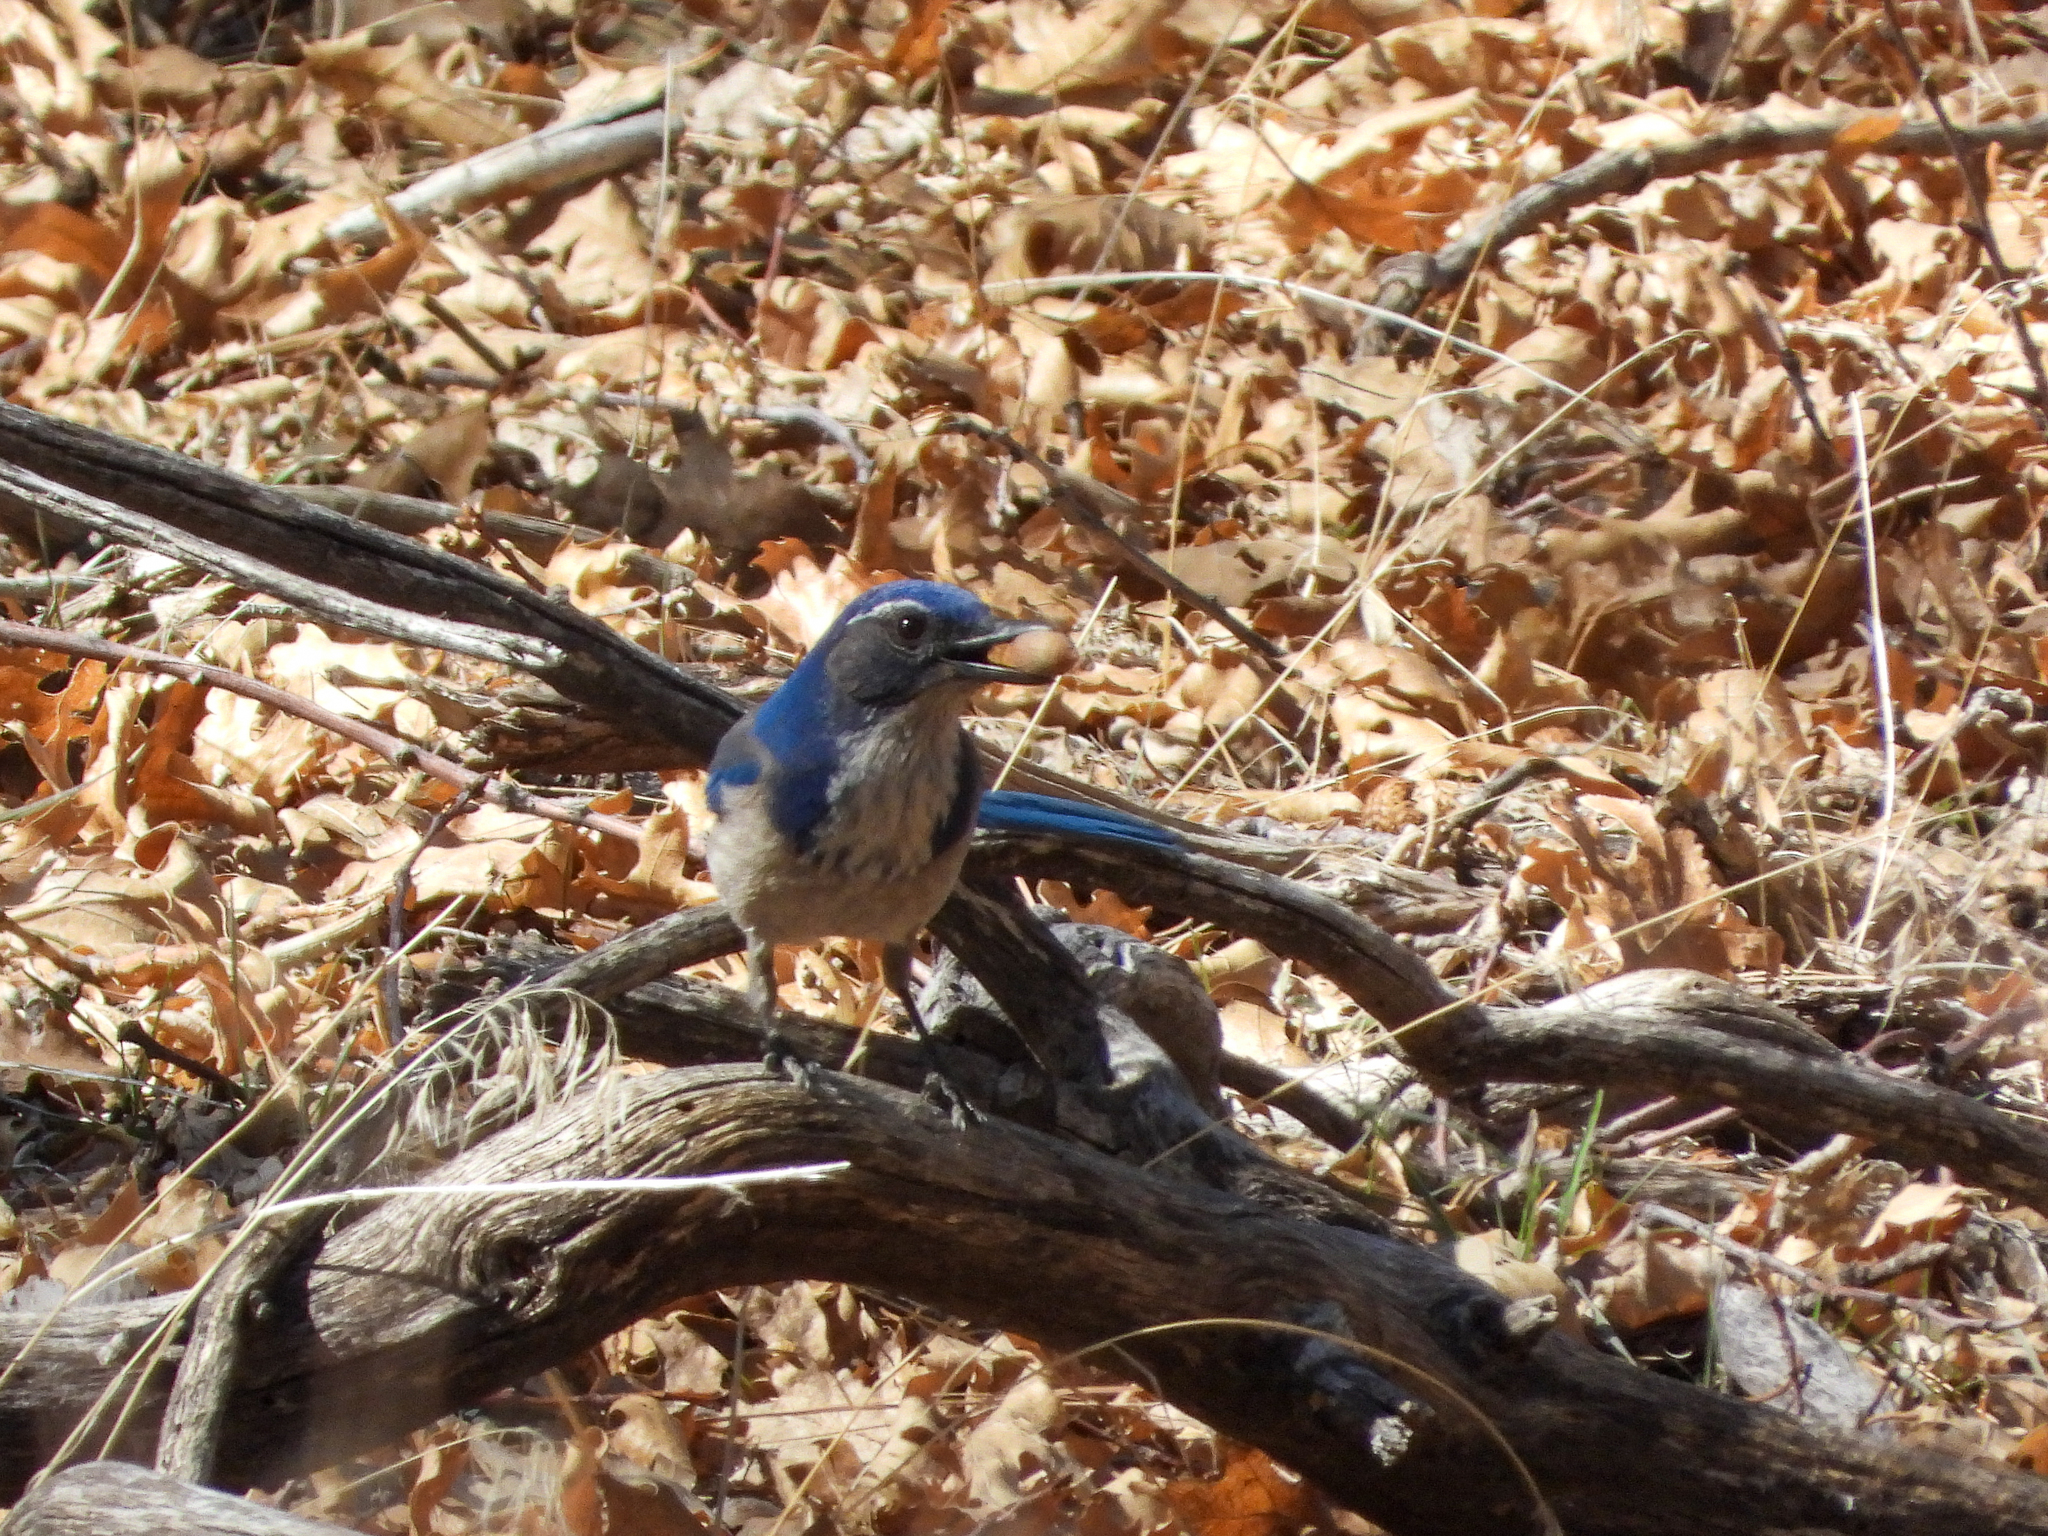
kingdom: Animalia
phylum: Chordata
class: Aves
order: Passeriformes
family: Corvidae
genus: Aphelocoma
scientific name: Aphelocoma californica
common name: California scrub-jay
